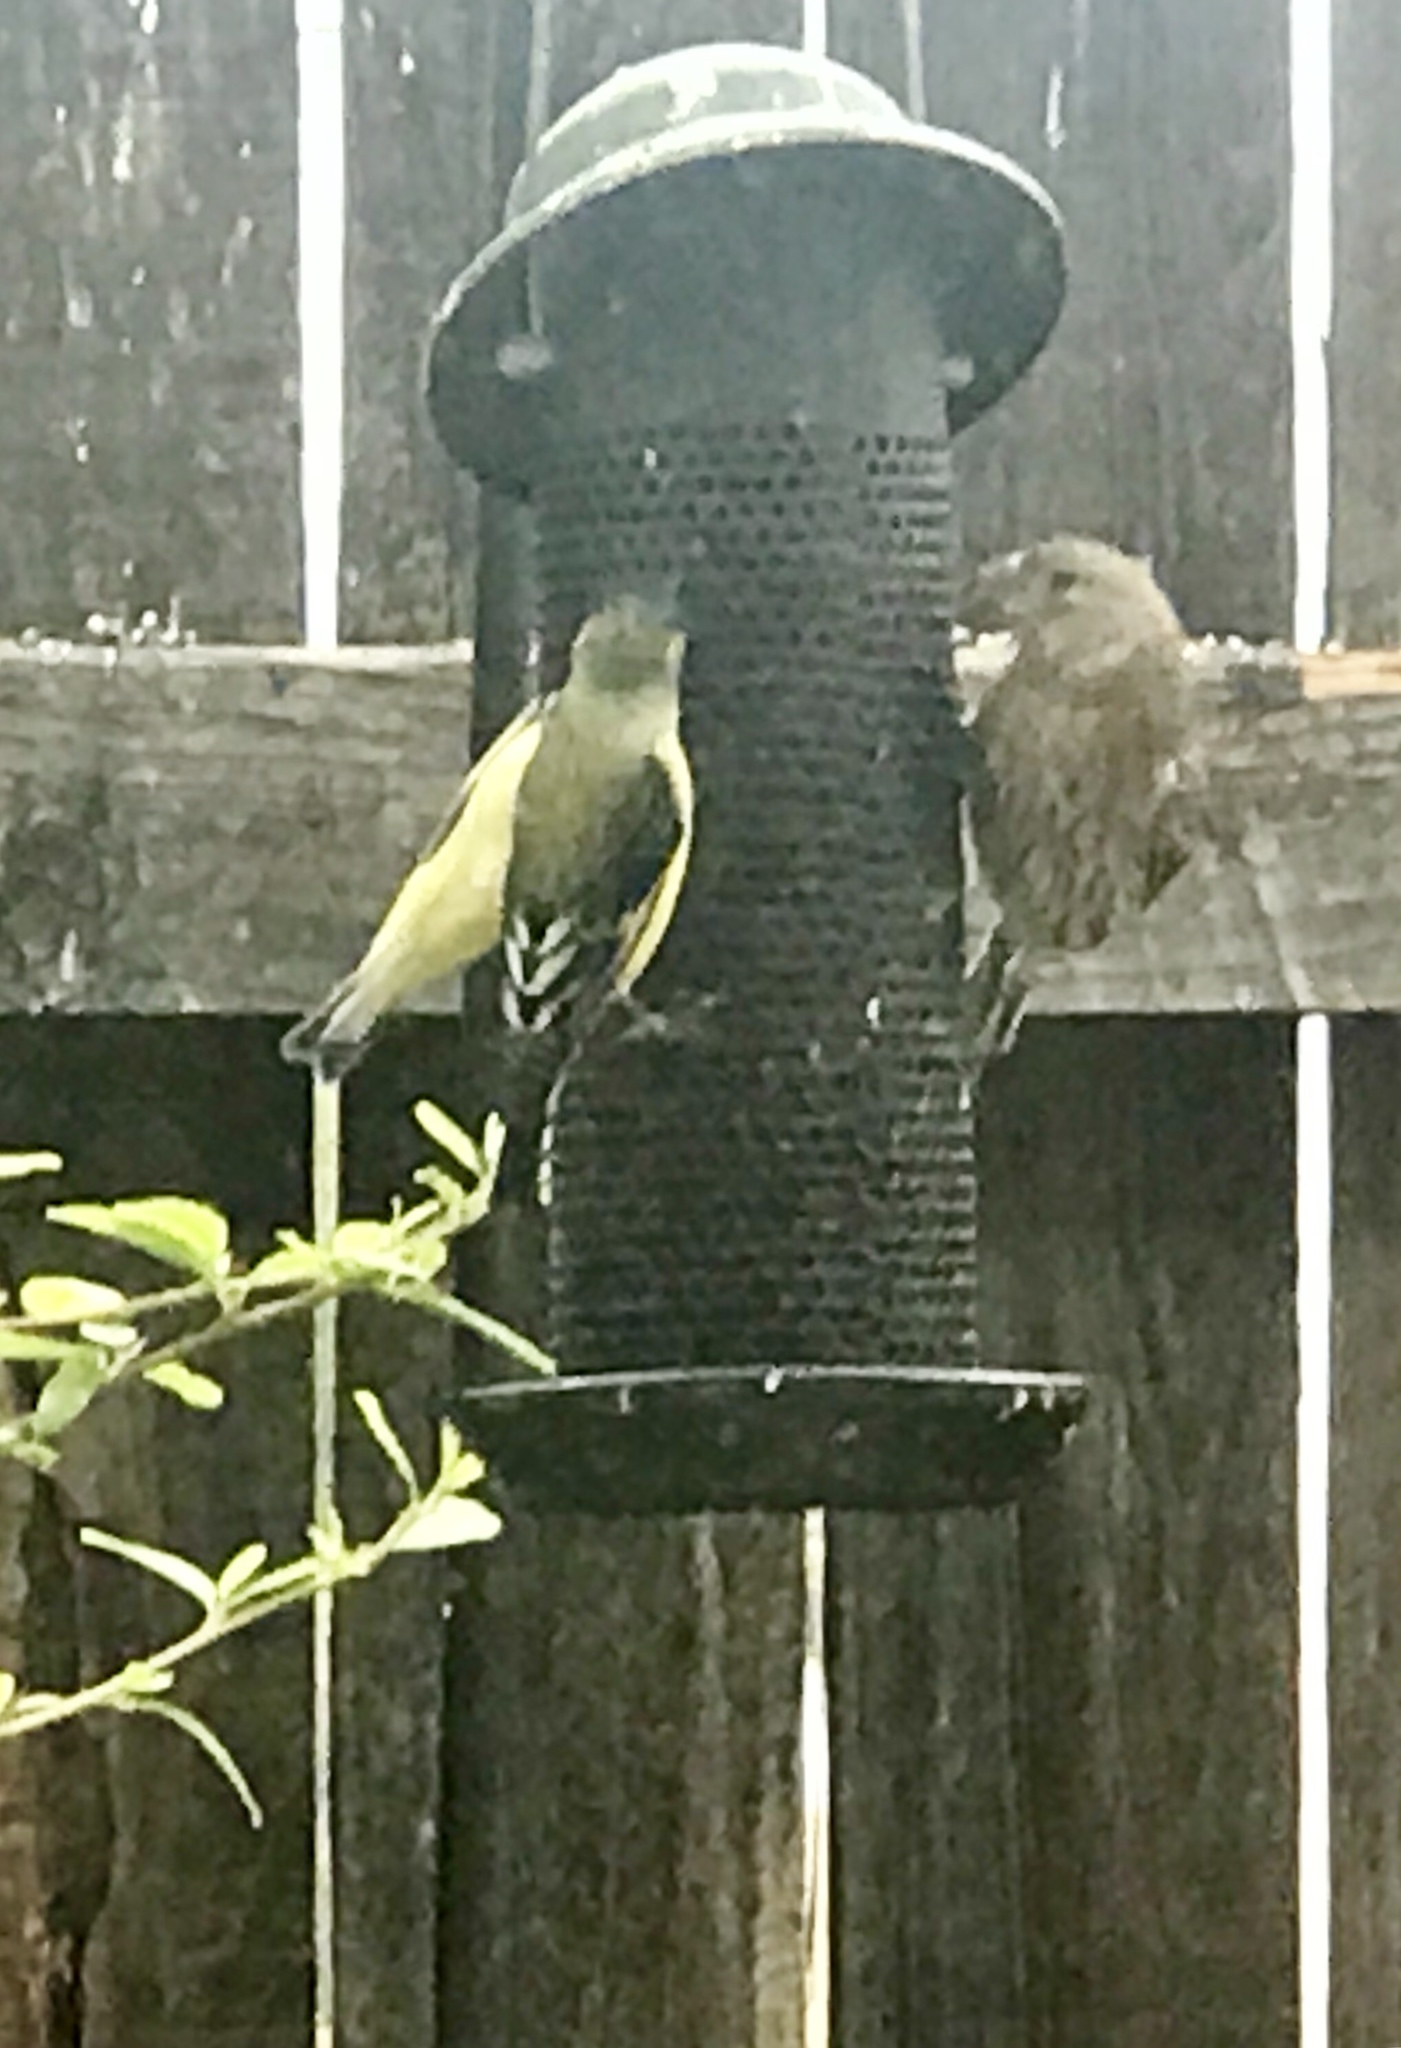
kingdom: Animalia
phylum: Chordata
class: Aves
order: Passeriformes
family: Fringillidae
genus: Spinus
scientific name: Spinus psaltria
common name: Lesser goldfinch
